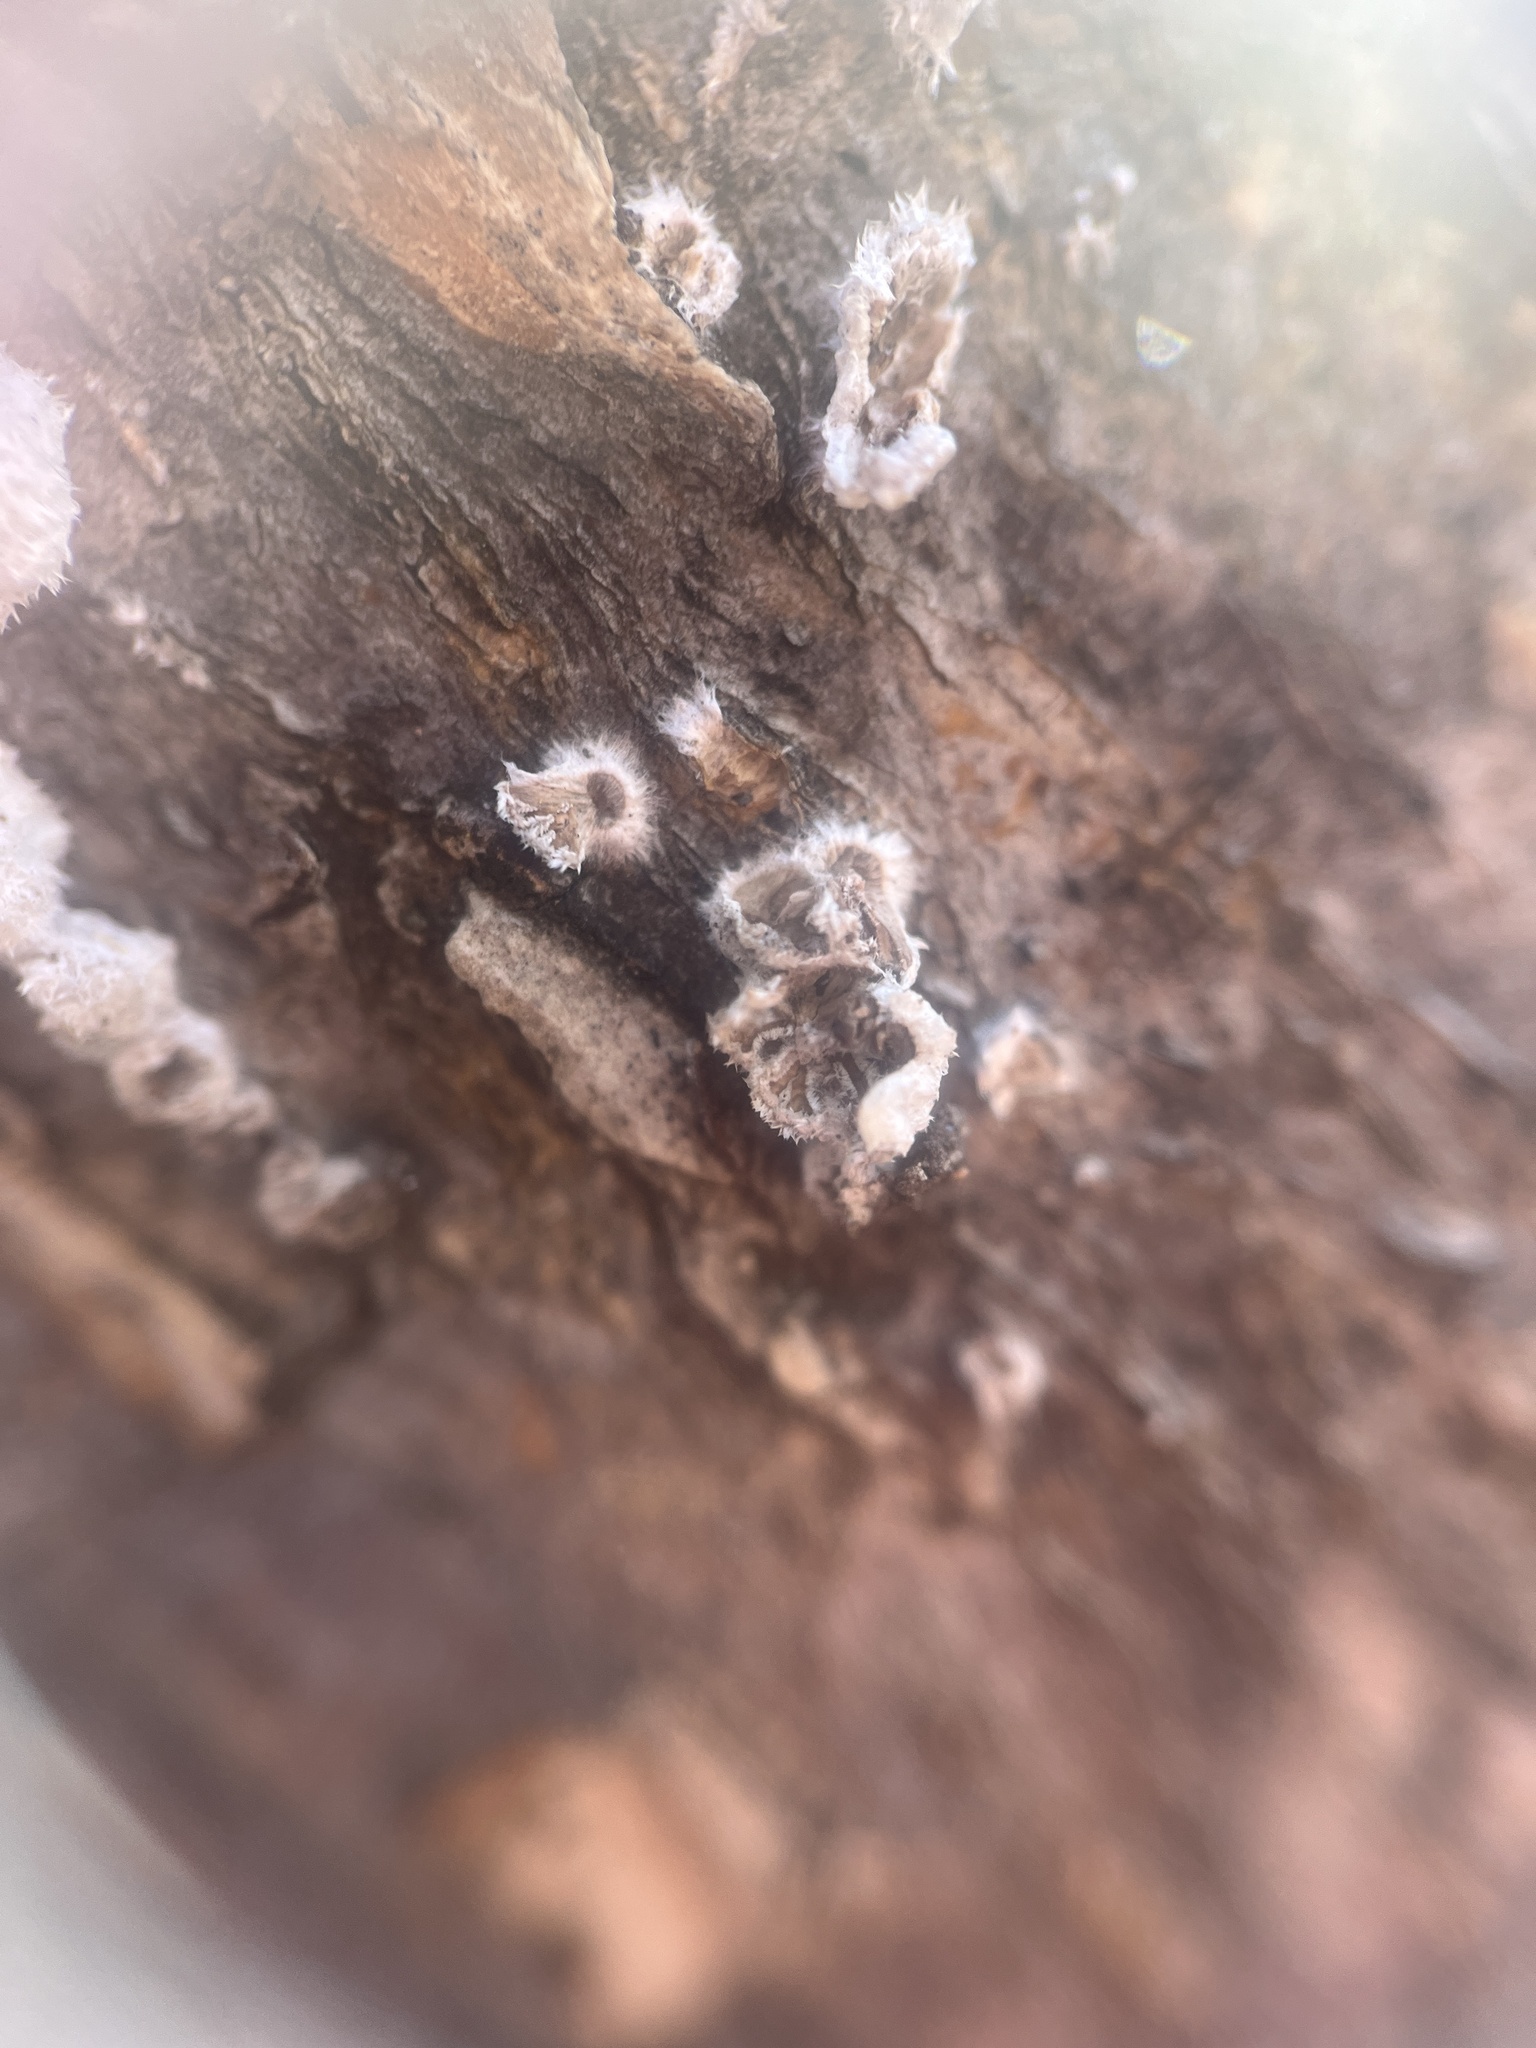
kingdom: Fungi
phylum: Basidiomycota
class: Agaricomycetes
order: Agaricales
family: Schizophyllaceae
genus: Schizophyllum
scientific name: Schizophyllum commune
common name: Common porecrust
